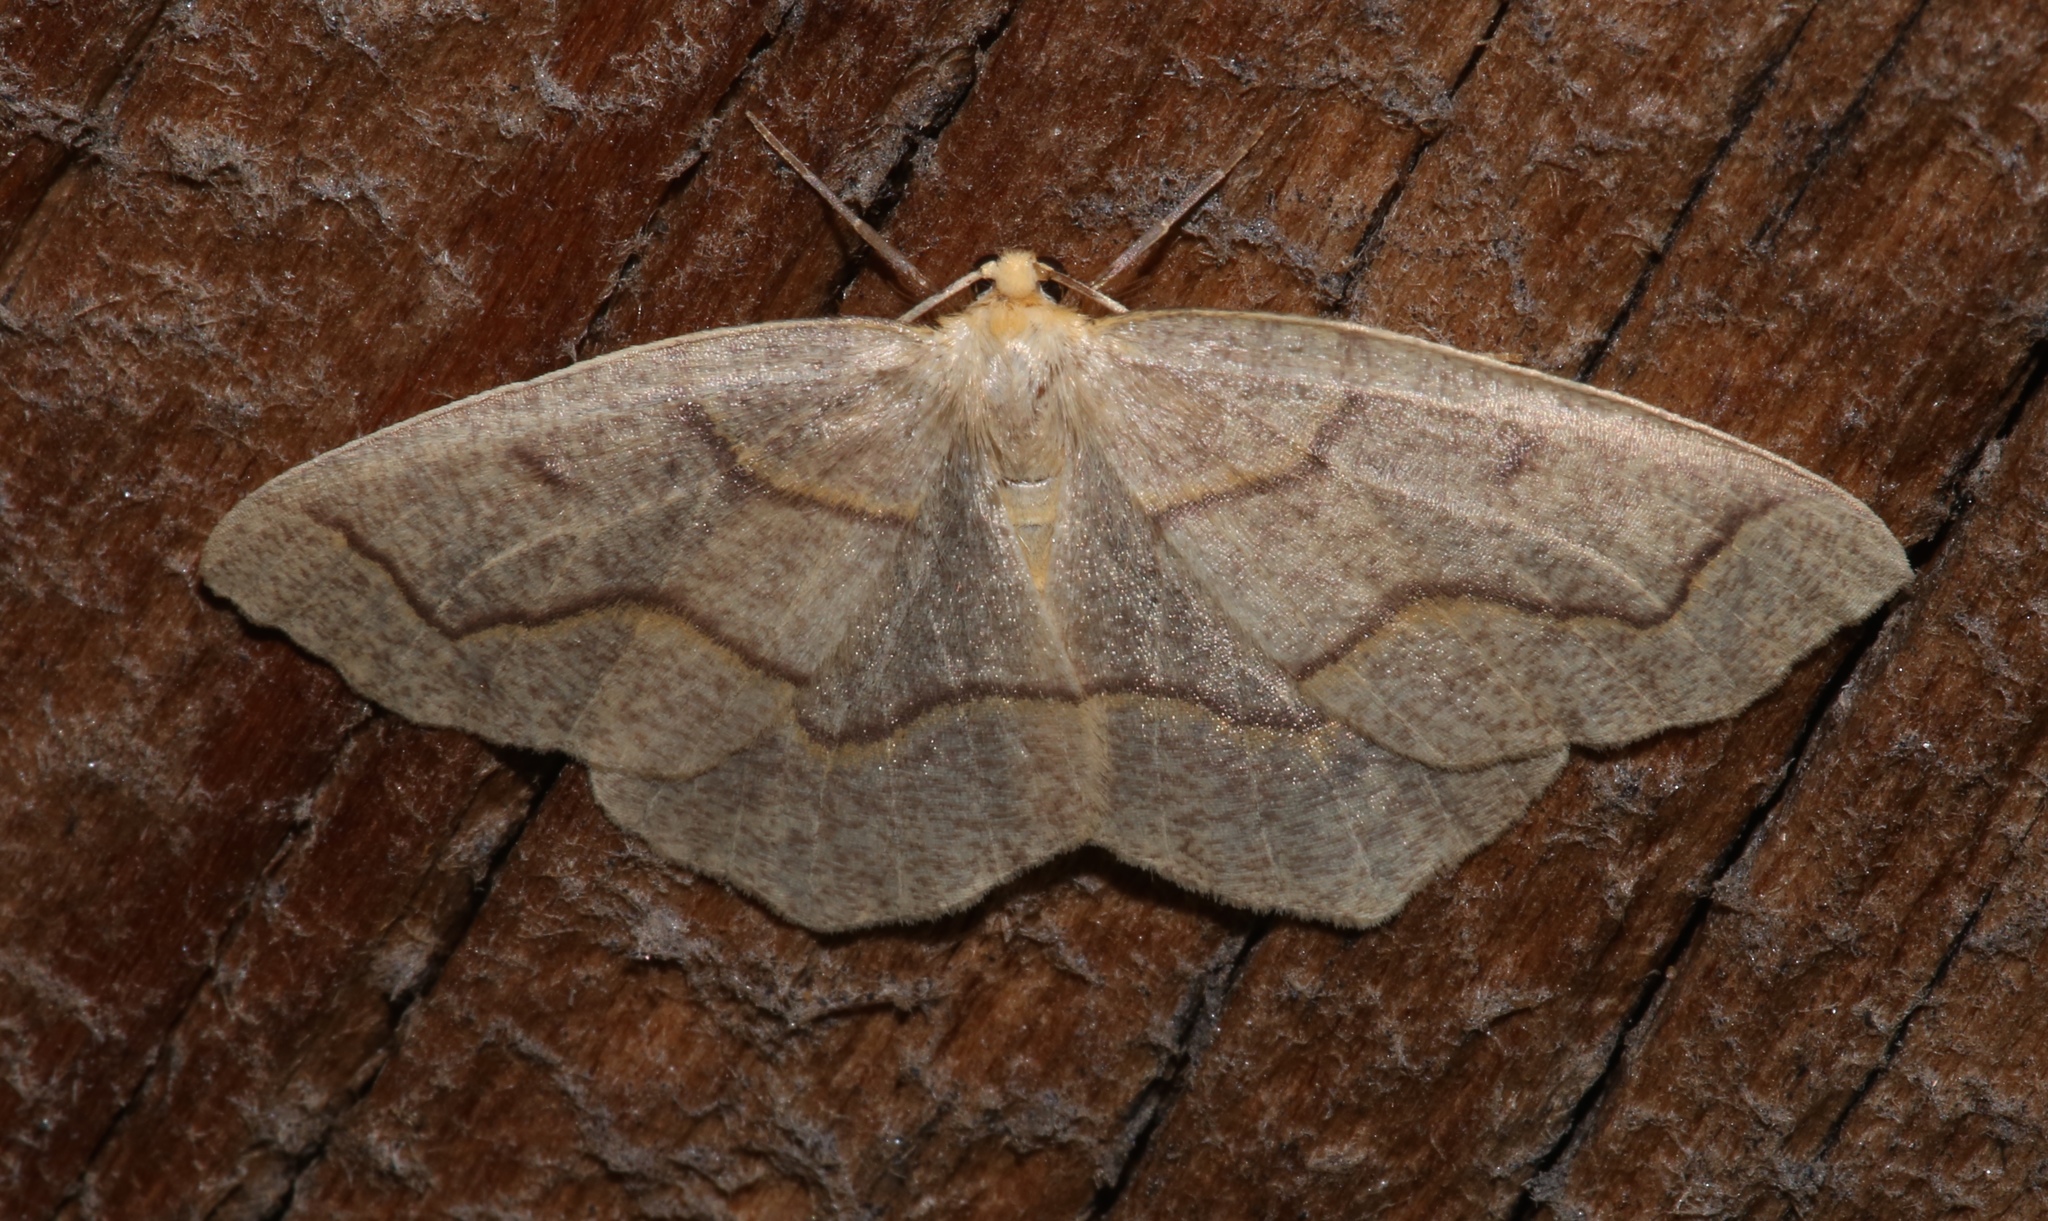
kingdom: Animalia
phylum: Arthropoda
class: Insecta
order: Lepidoptera
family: Geometridae
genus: Lambdina
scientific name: Lambdina fiscellaria
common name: Hemlock looper
